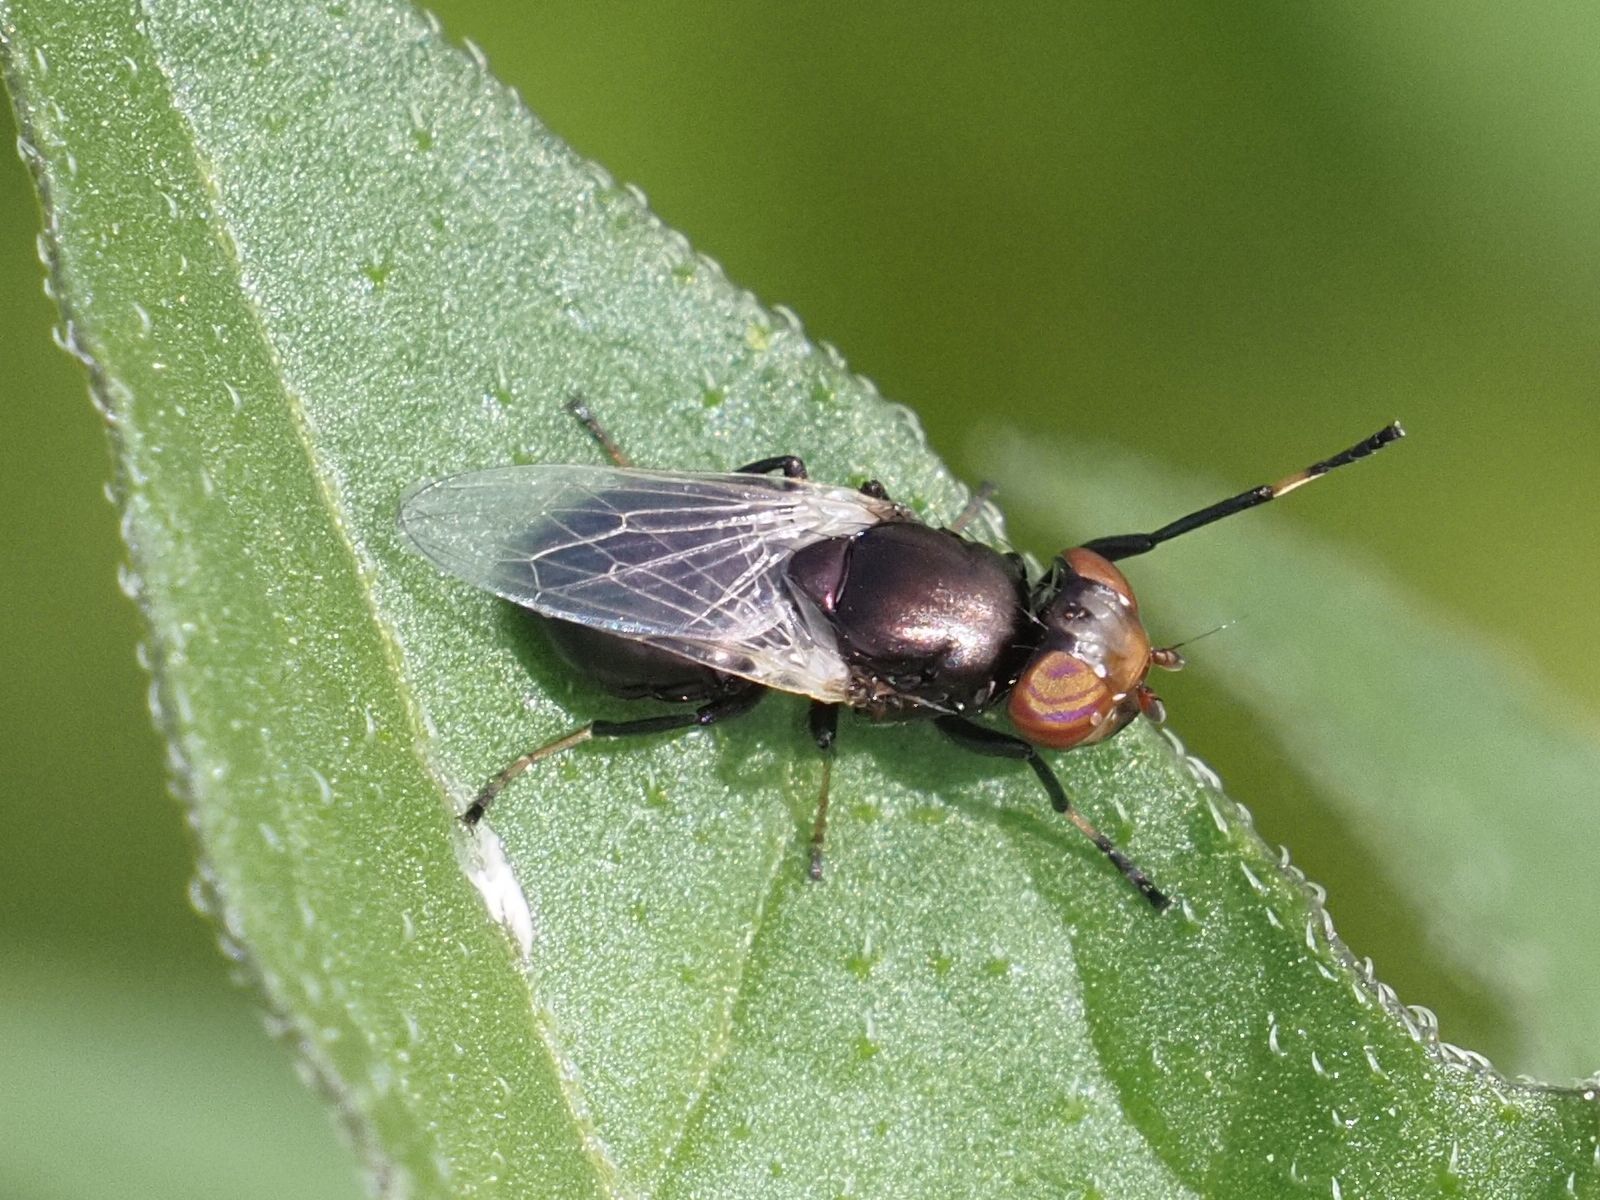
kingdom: Animalia
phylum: Arthropoda
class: Insecta
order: Diptera
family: Ulidiidae
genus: Physiphora
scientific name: Physiphora alceae
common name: Picture-winged fly
